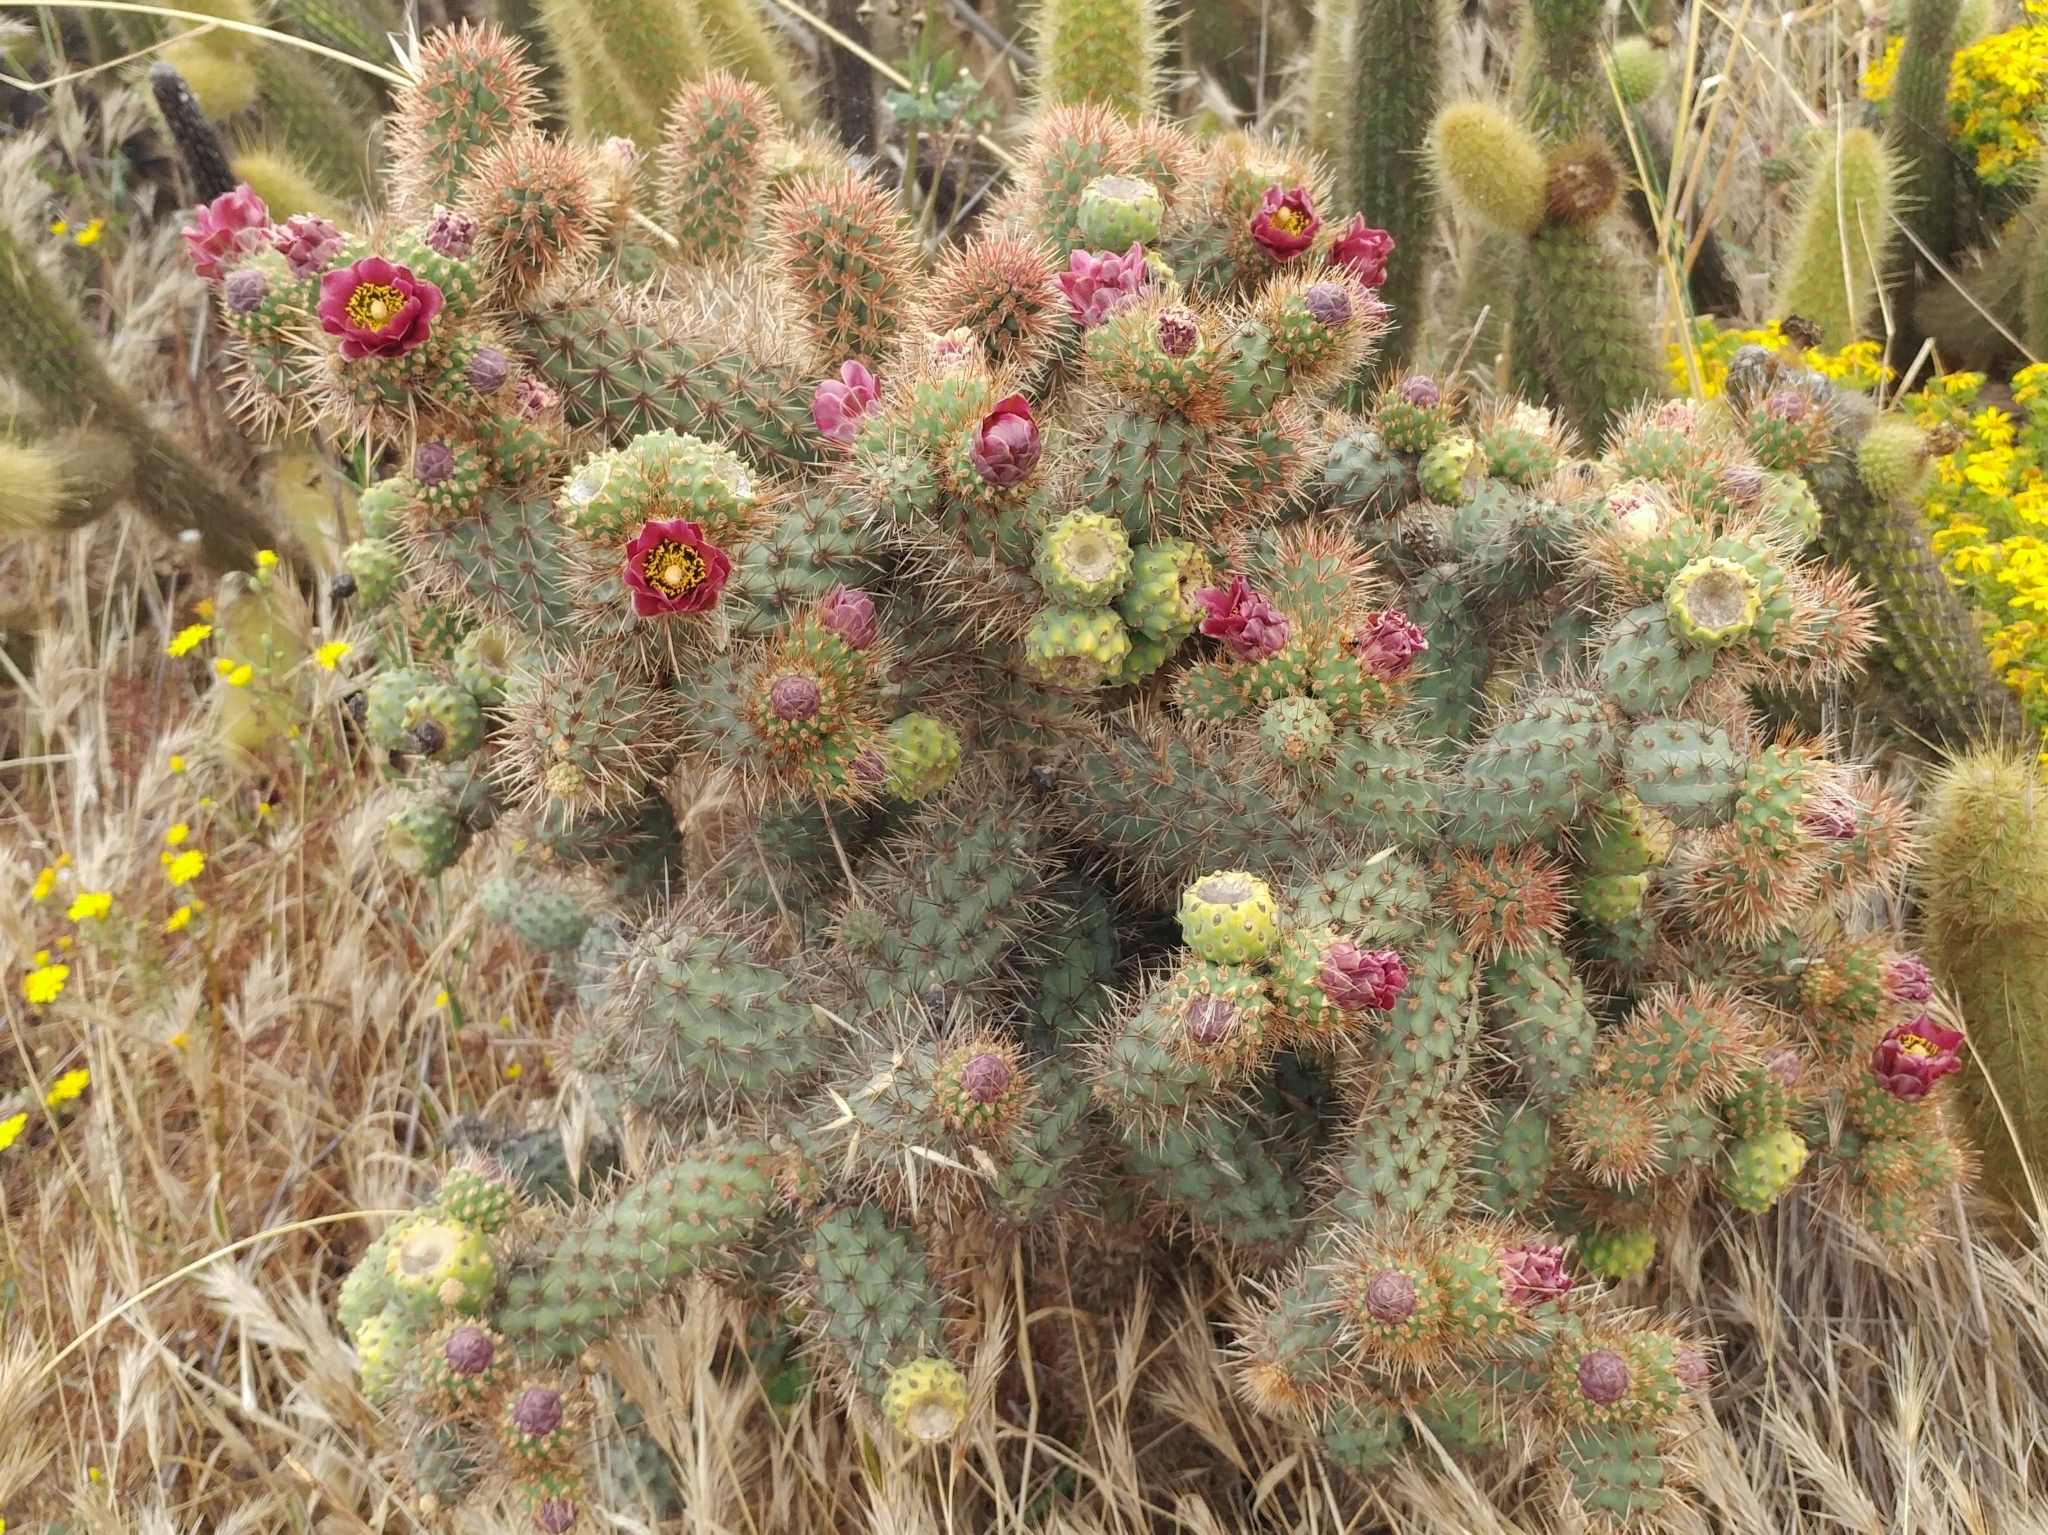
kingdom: Plantae
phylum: Tracheophyta
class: Magnoliopsida
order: Caryophyllales
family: Cactaceae
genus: Cylindropuntia
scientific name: Cylindropuntia prolifera
